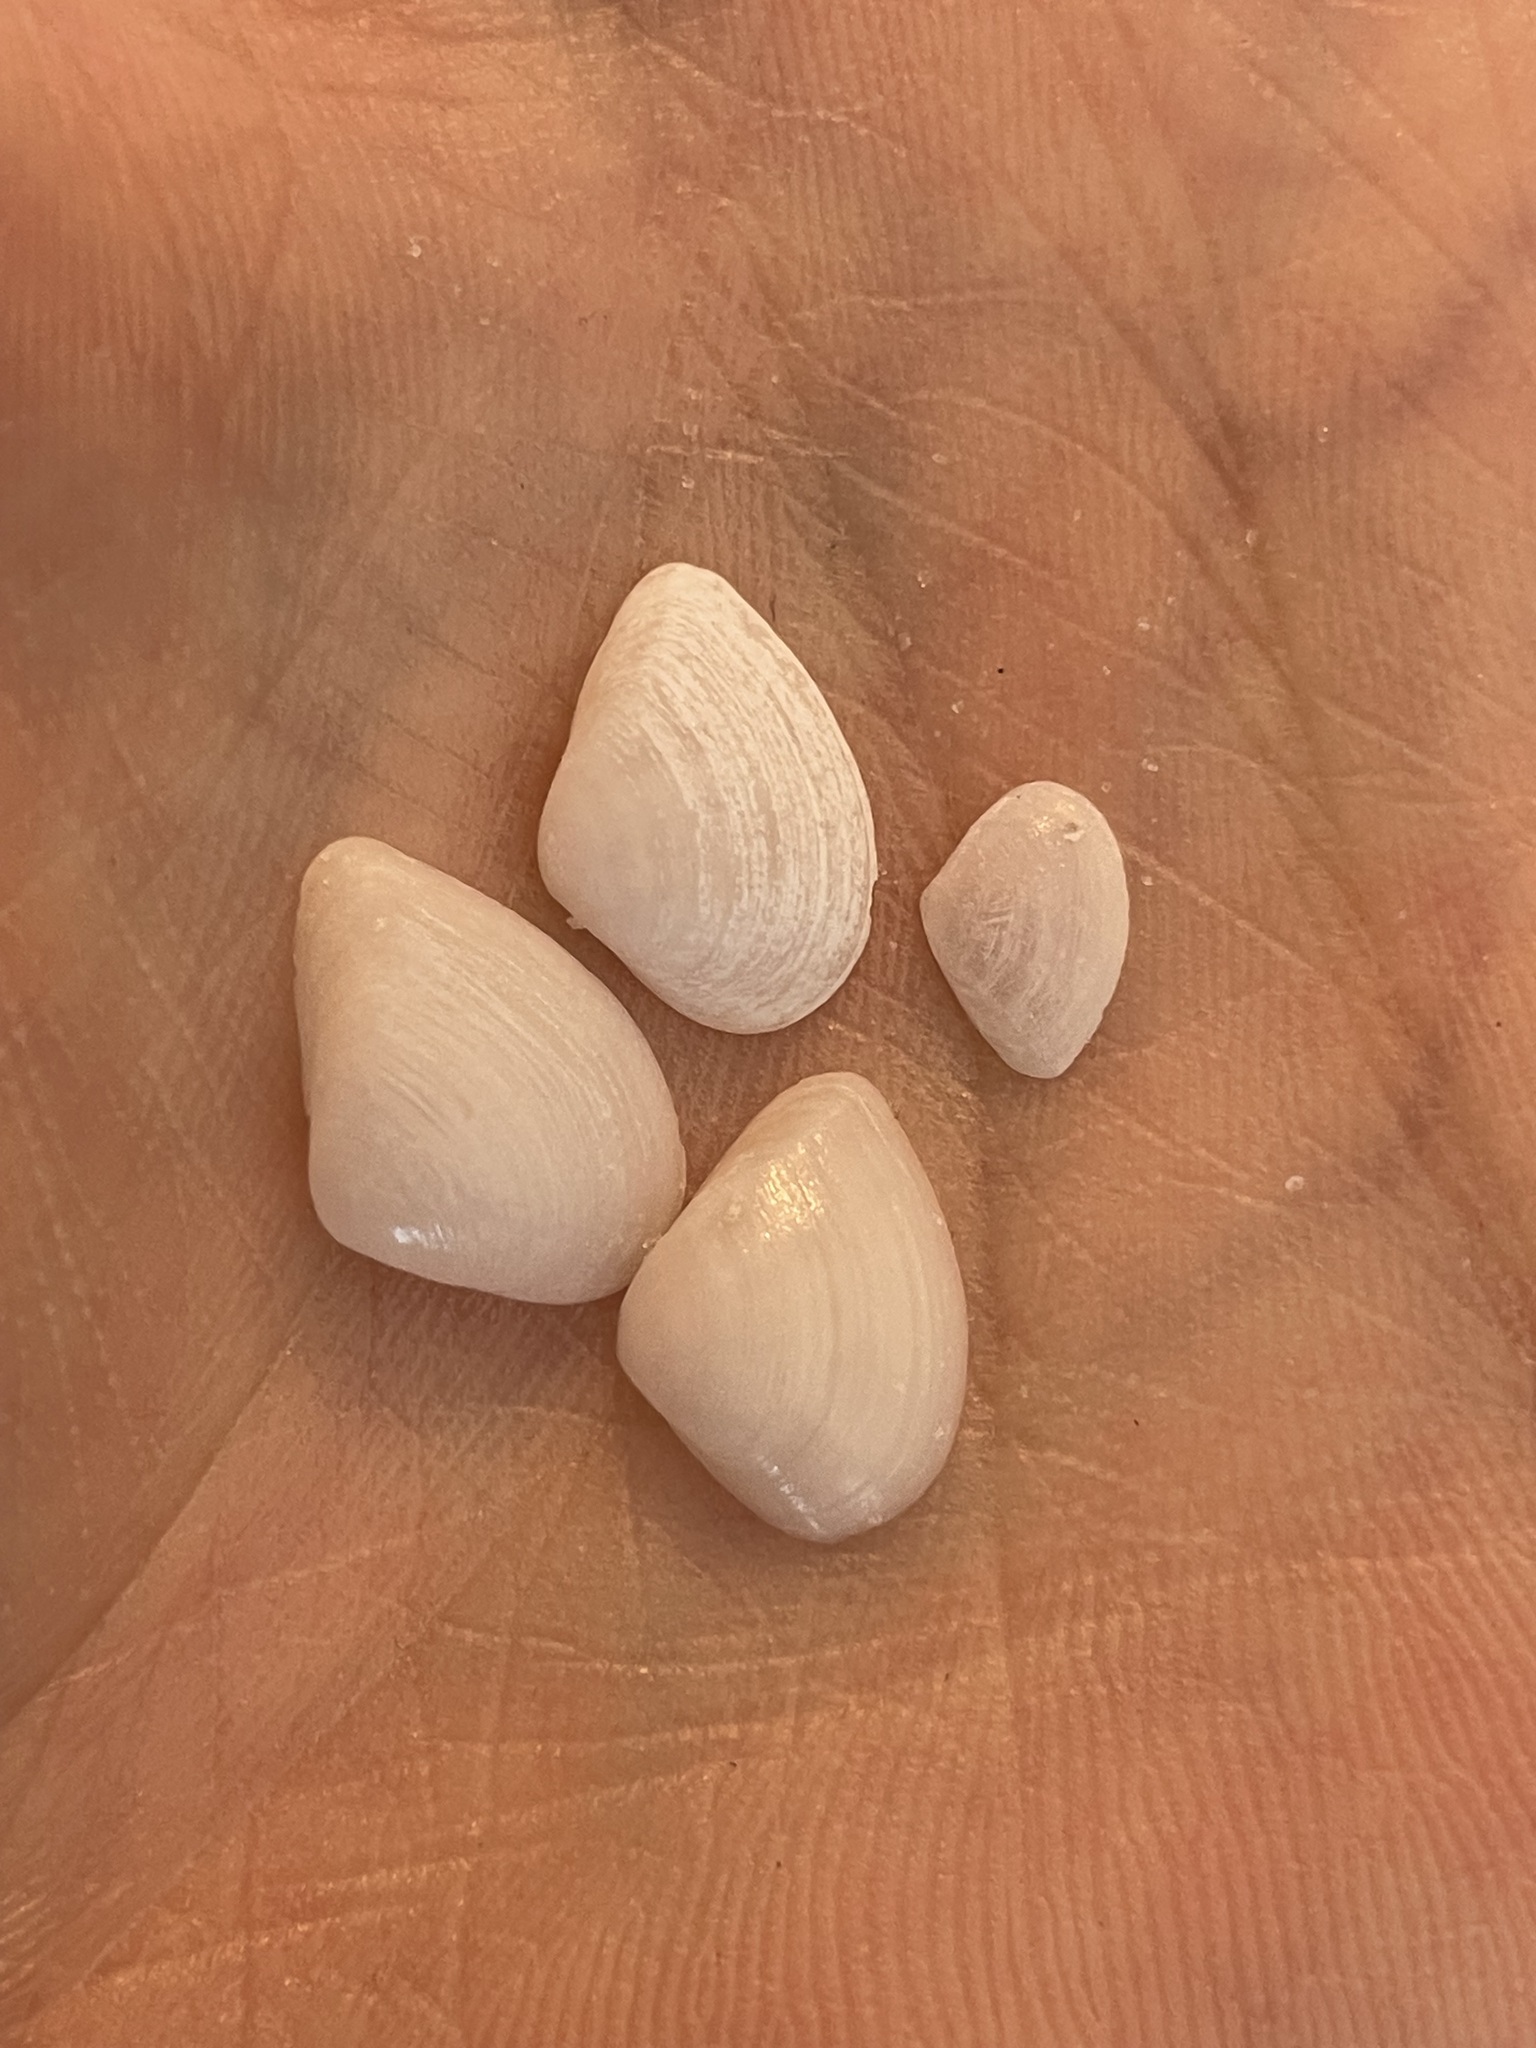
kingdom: Animalia
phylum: Mollusca
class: Bivalvia
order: Venerida
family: Mactridae
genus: Mulinia
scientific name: Mulinia lateralis
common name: Dwarf surfclam
